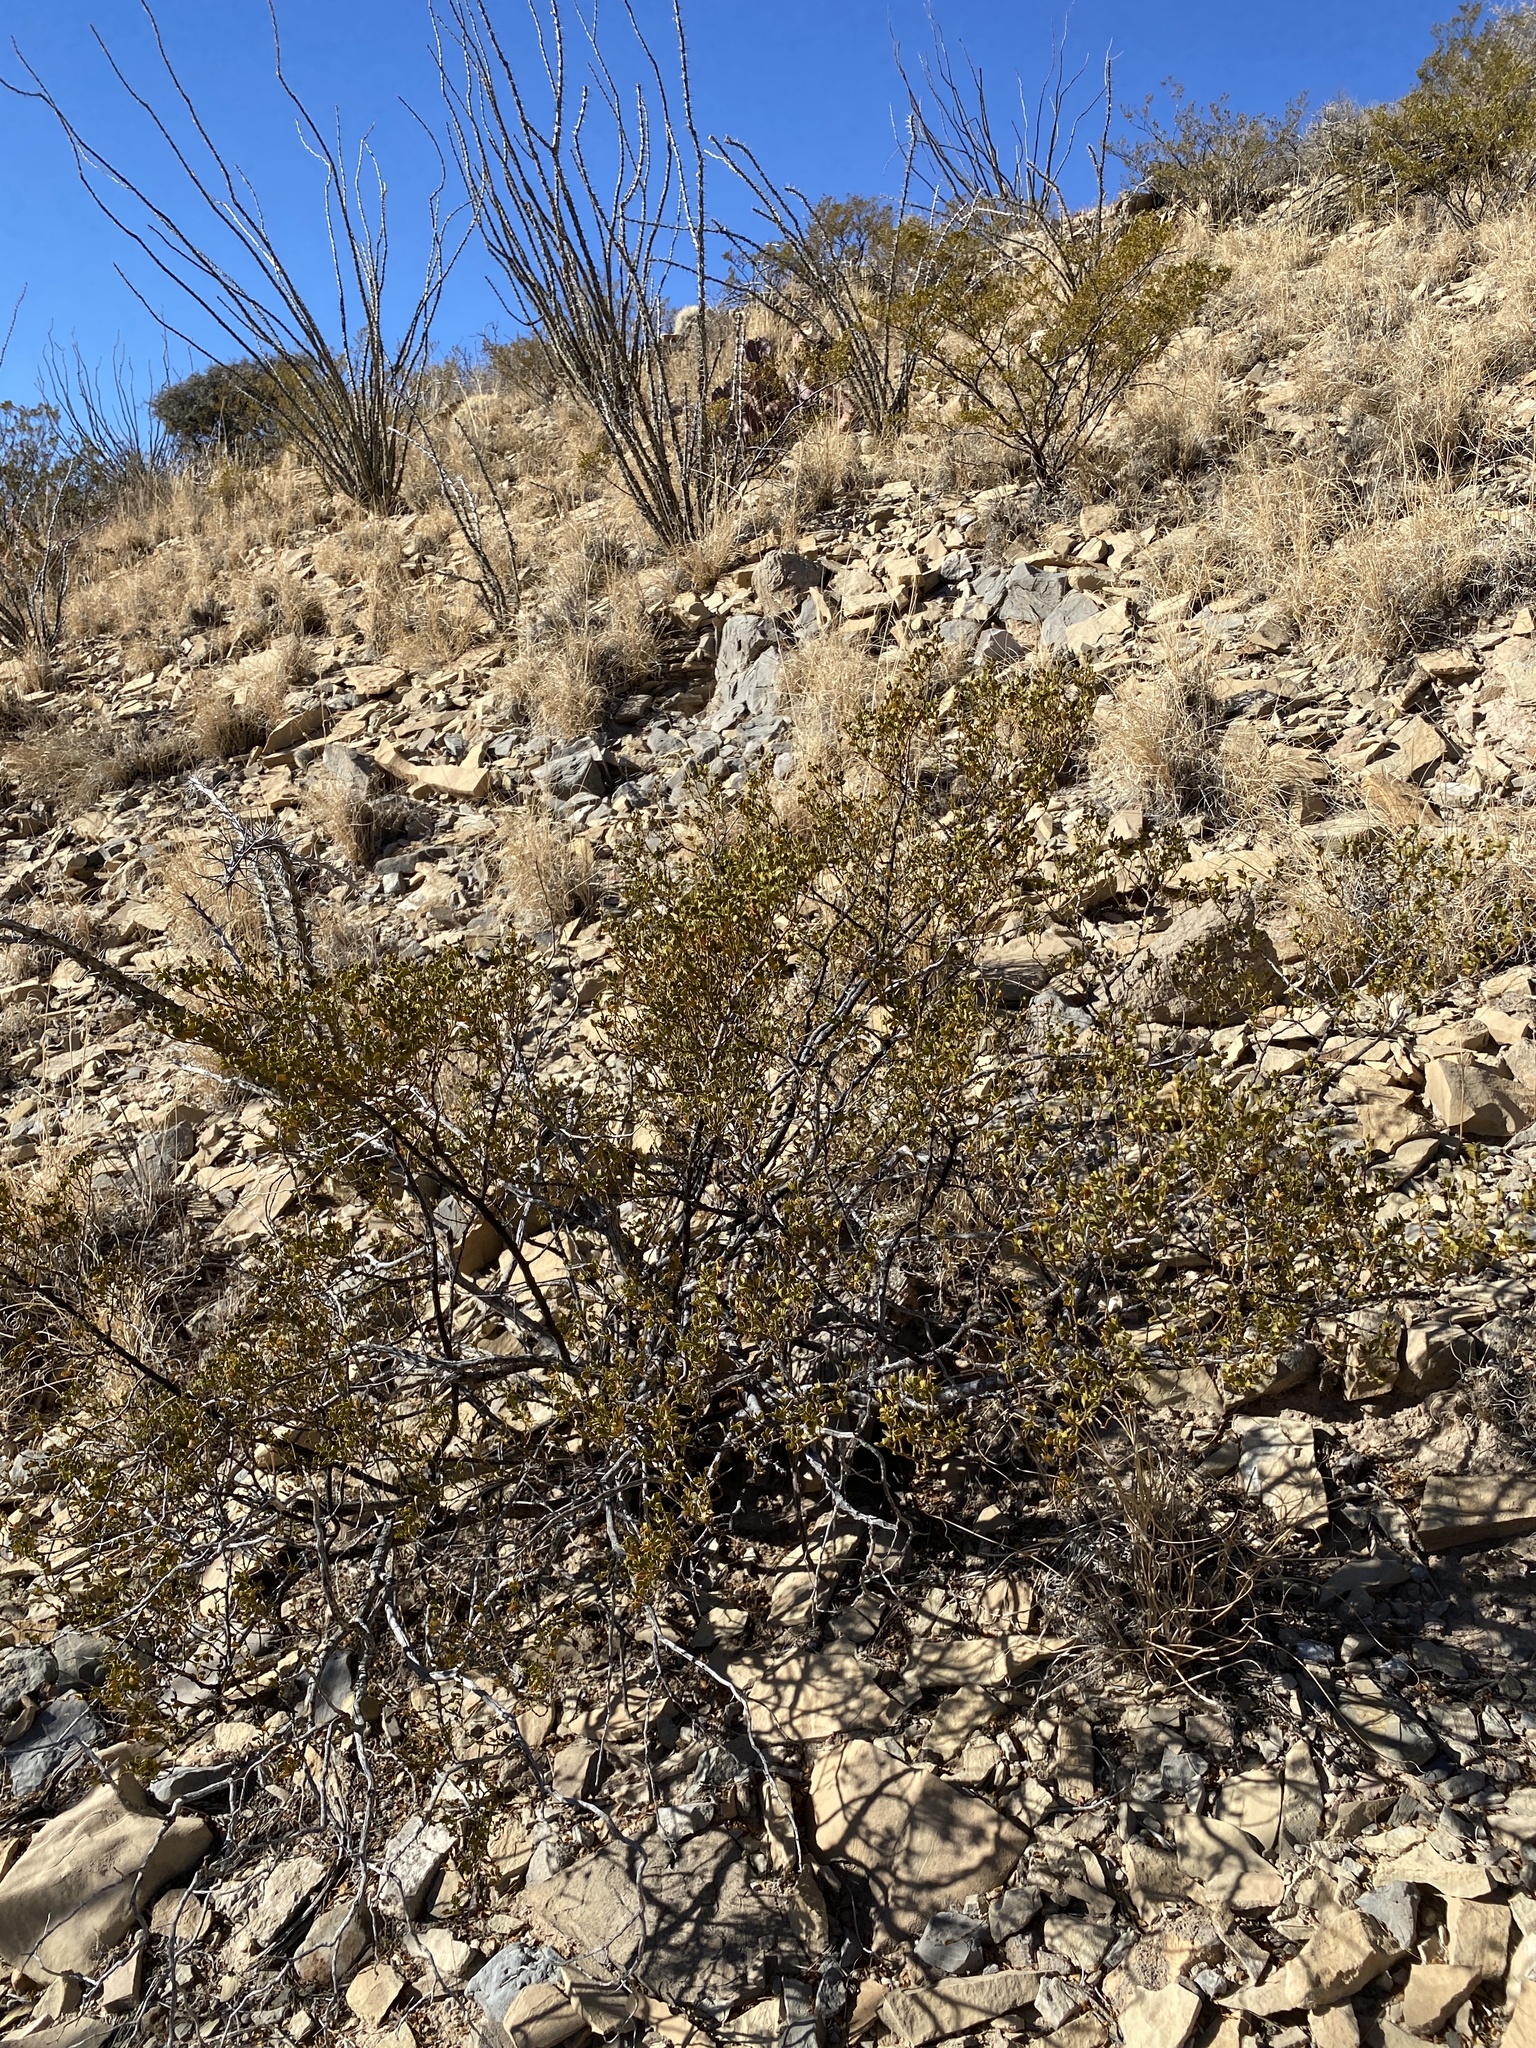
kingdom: Plantae
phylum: Tracheophyta
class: Magnoliopsida
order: Zygophyllales
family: Zygophyllaceae
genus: Larrea
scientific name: Larrea tridentata
